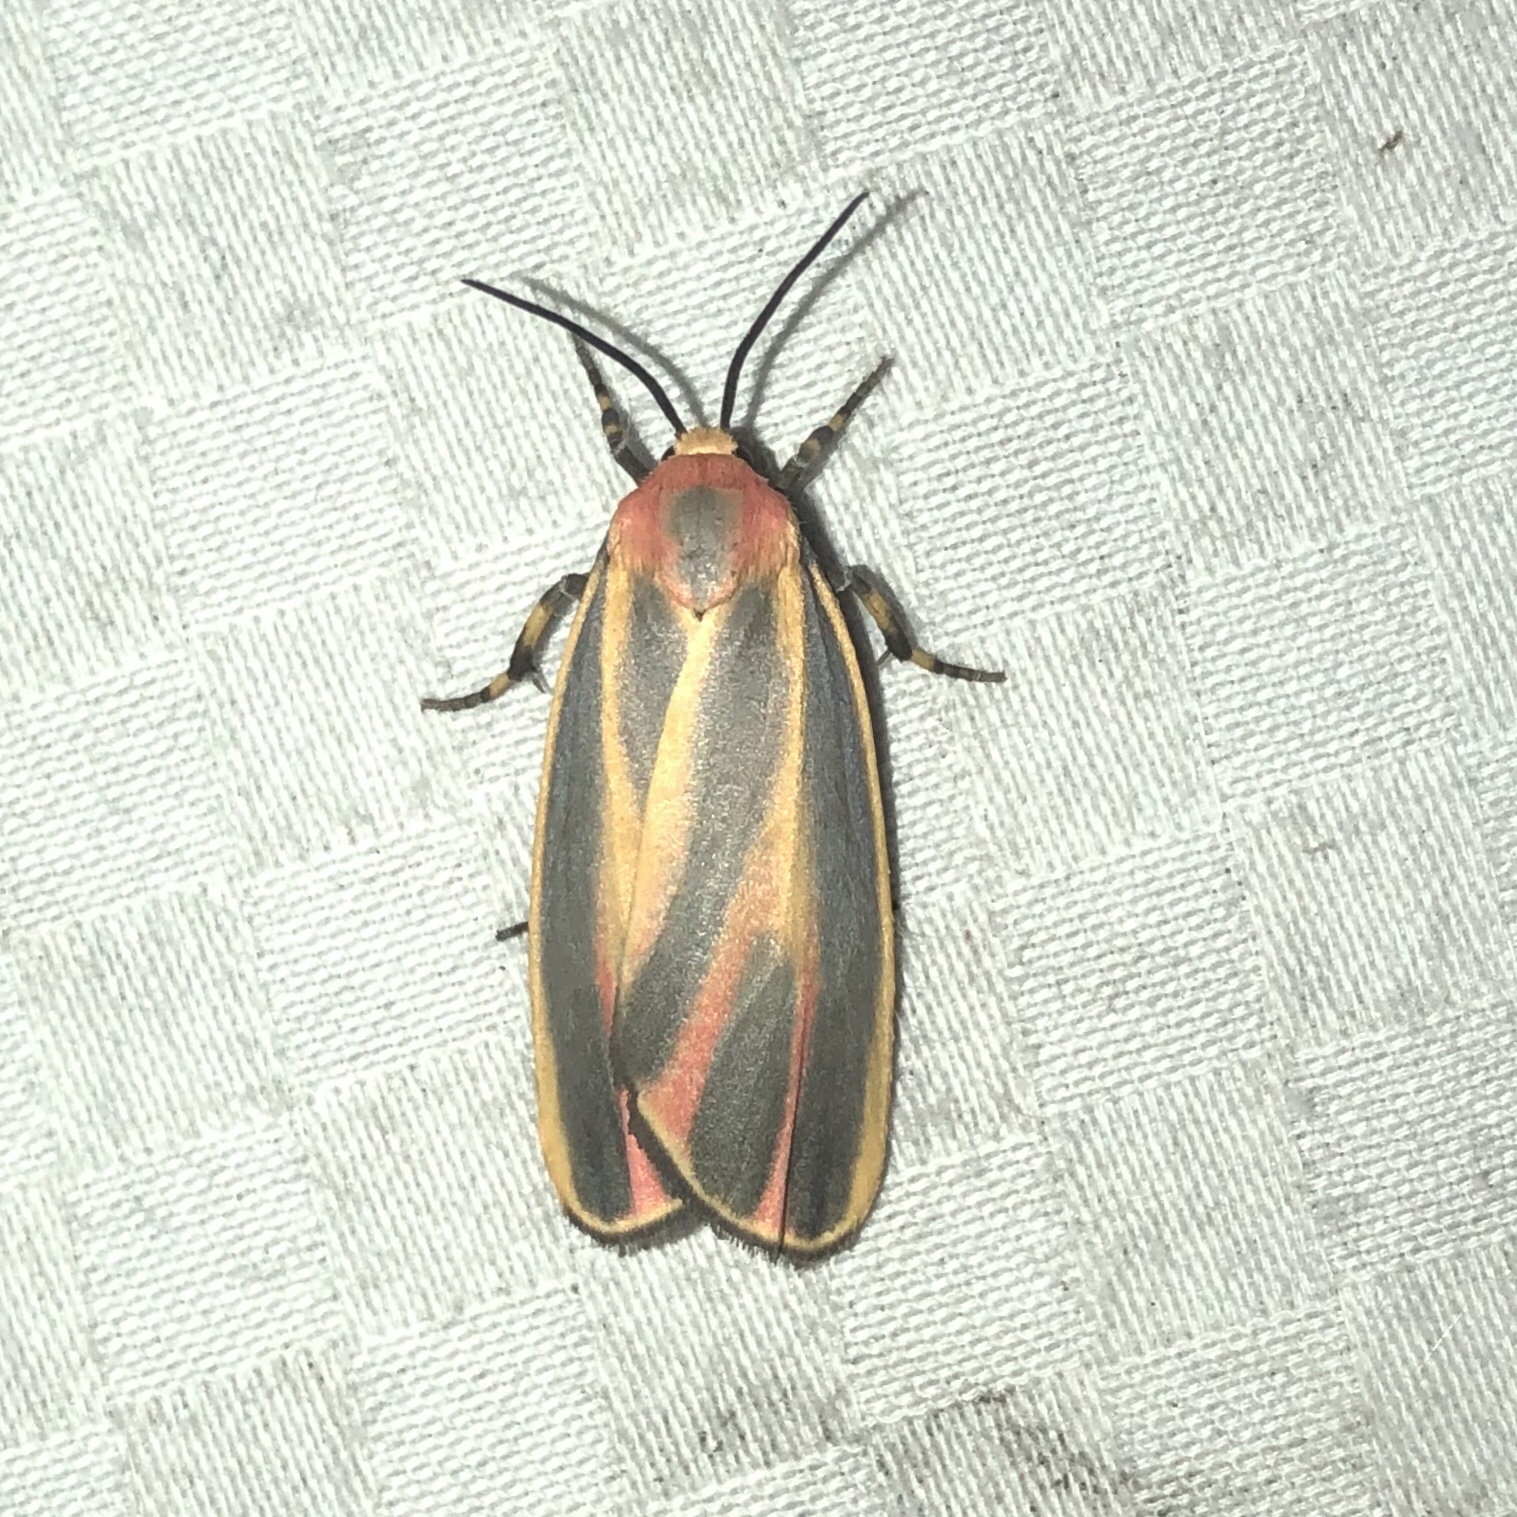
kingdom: Animalia
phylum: Arthropoda
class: Insecta
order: Lepidoptera
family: Erebidae
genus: Hypoprepia
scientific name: Hypoprepia fucosa
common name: Painted lichen moth
